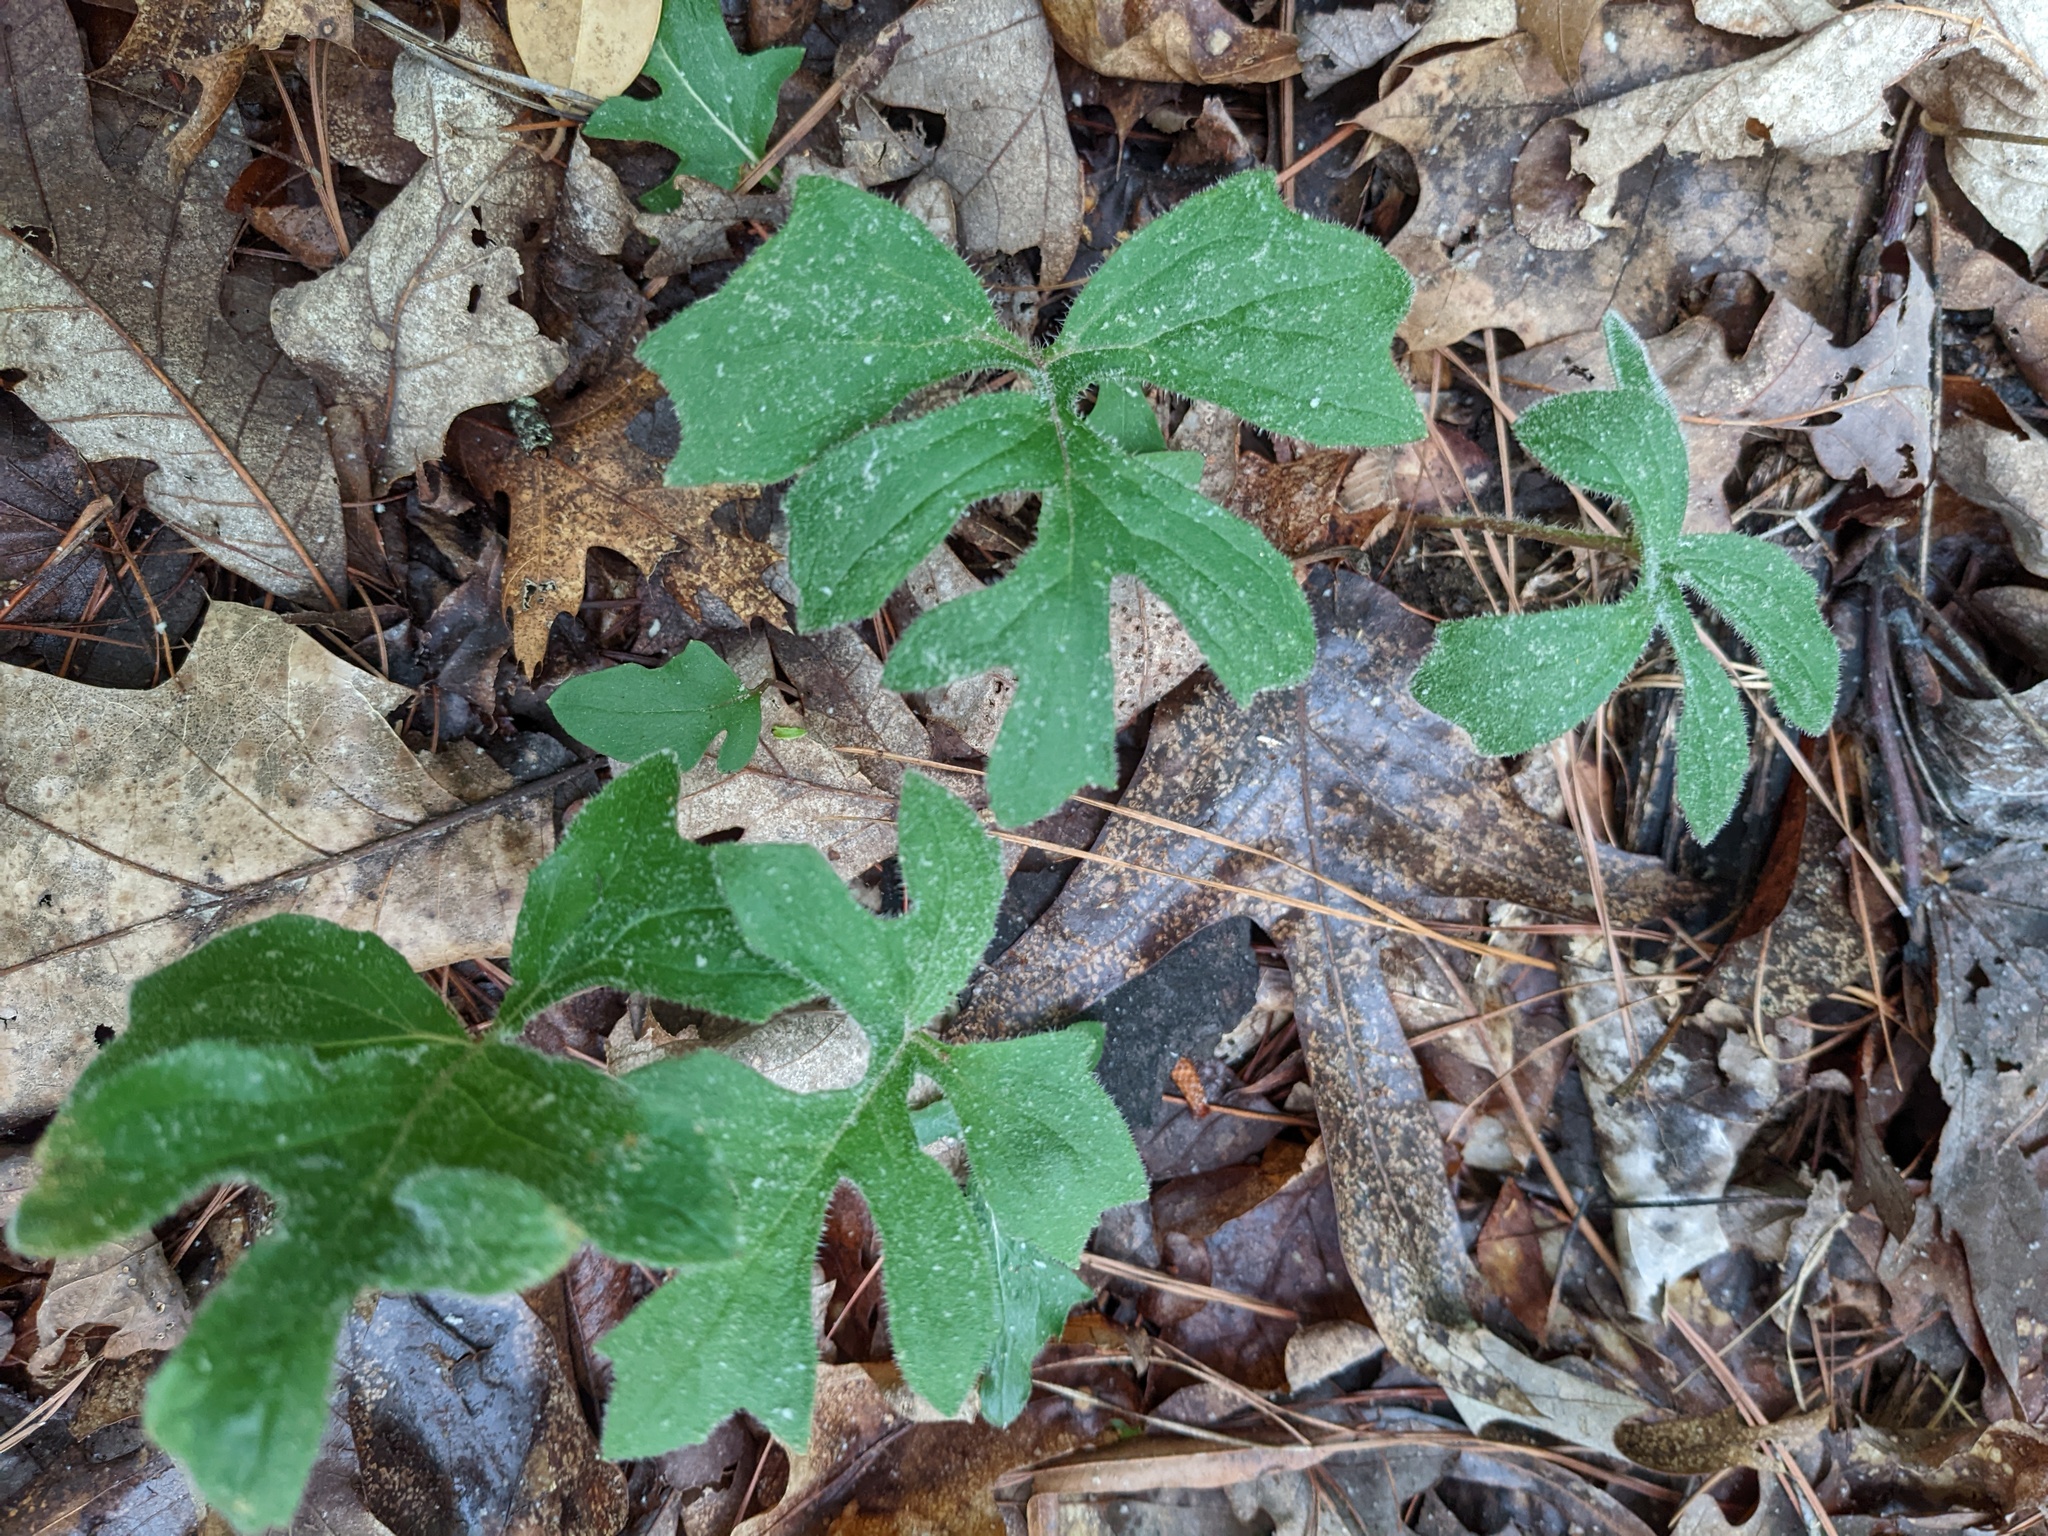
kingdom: Plantae
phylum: Tracheophyta
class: Magnoliopsida
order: Asterales
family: Asteraceae
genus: Nabalus
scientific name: Nabalus serpentarius
